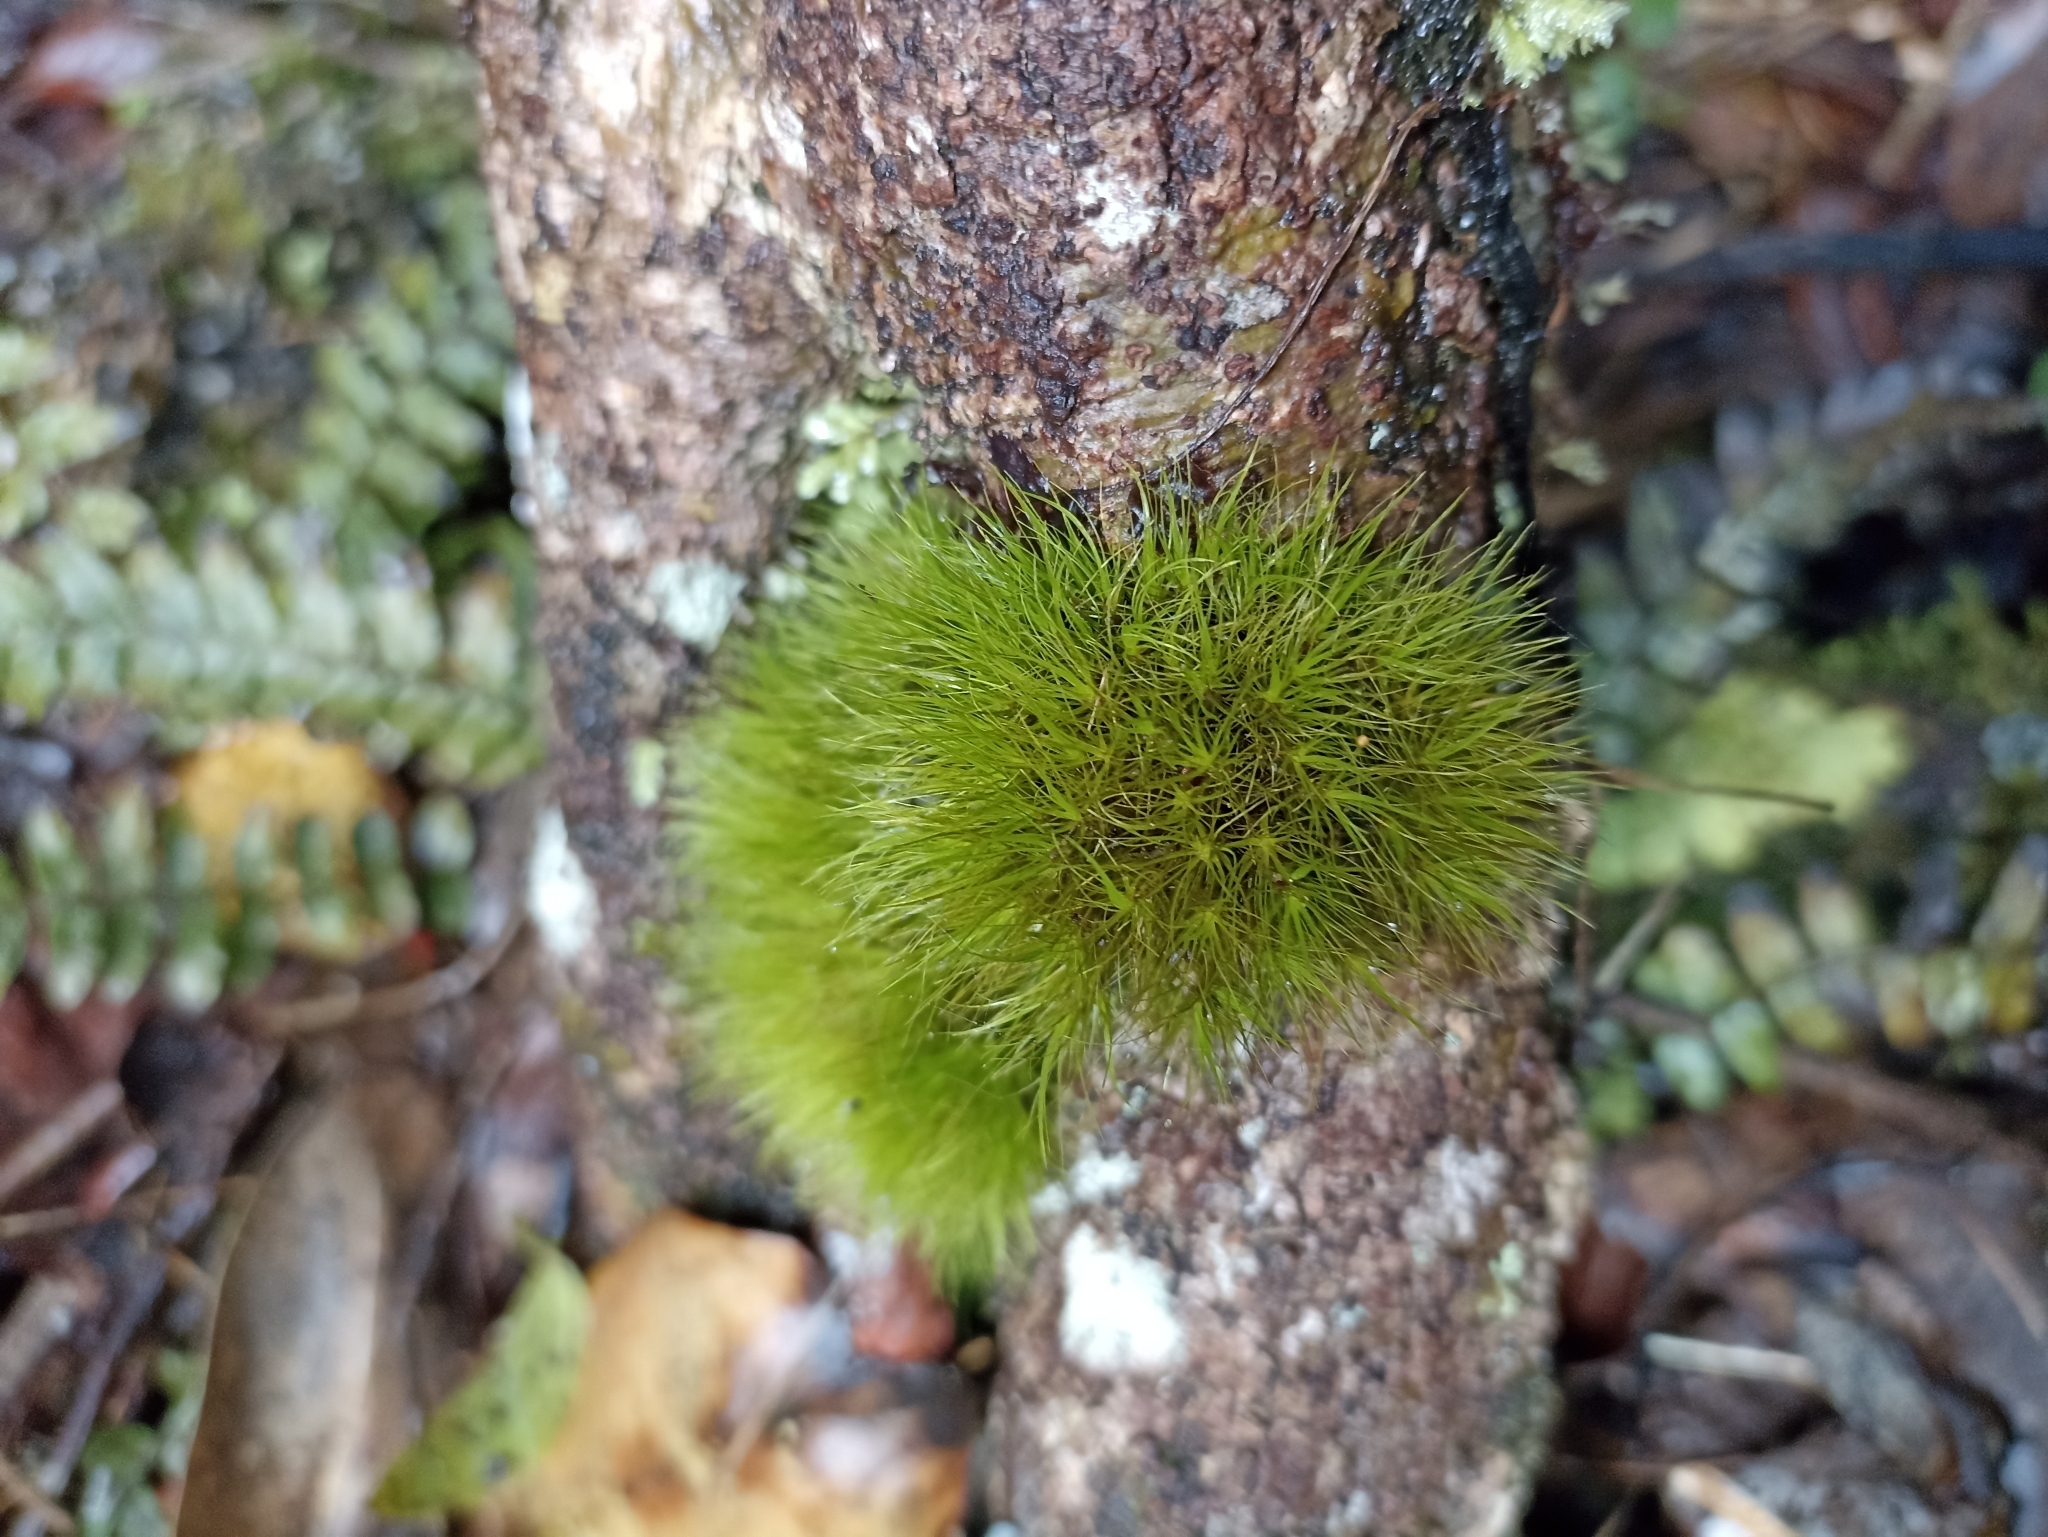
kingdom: Plantae
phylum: Bryophyta
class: Bryopsida
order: Dicranales
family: Dicranaceae
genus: Dicranoloma
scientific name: Dicranoloma menziesii
